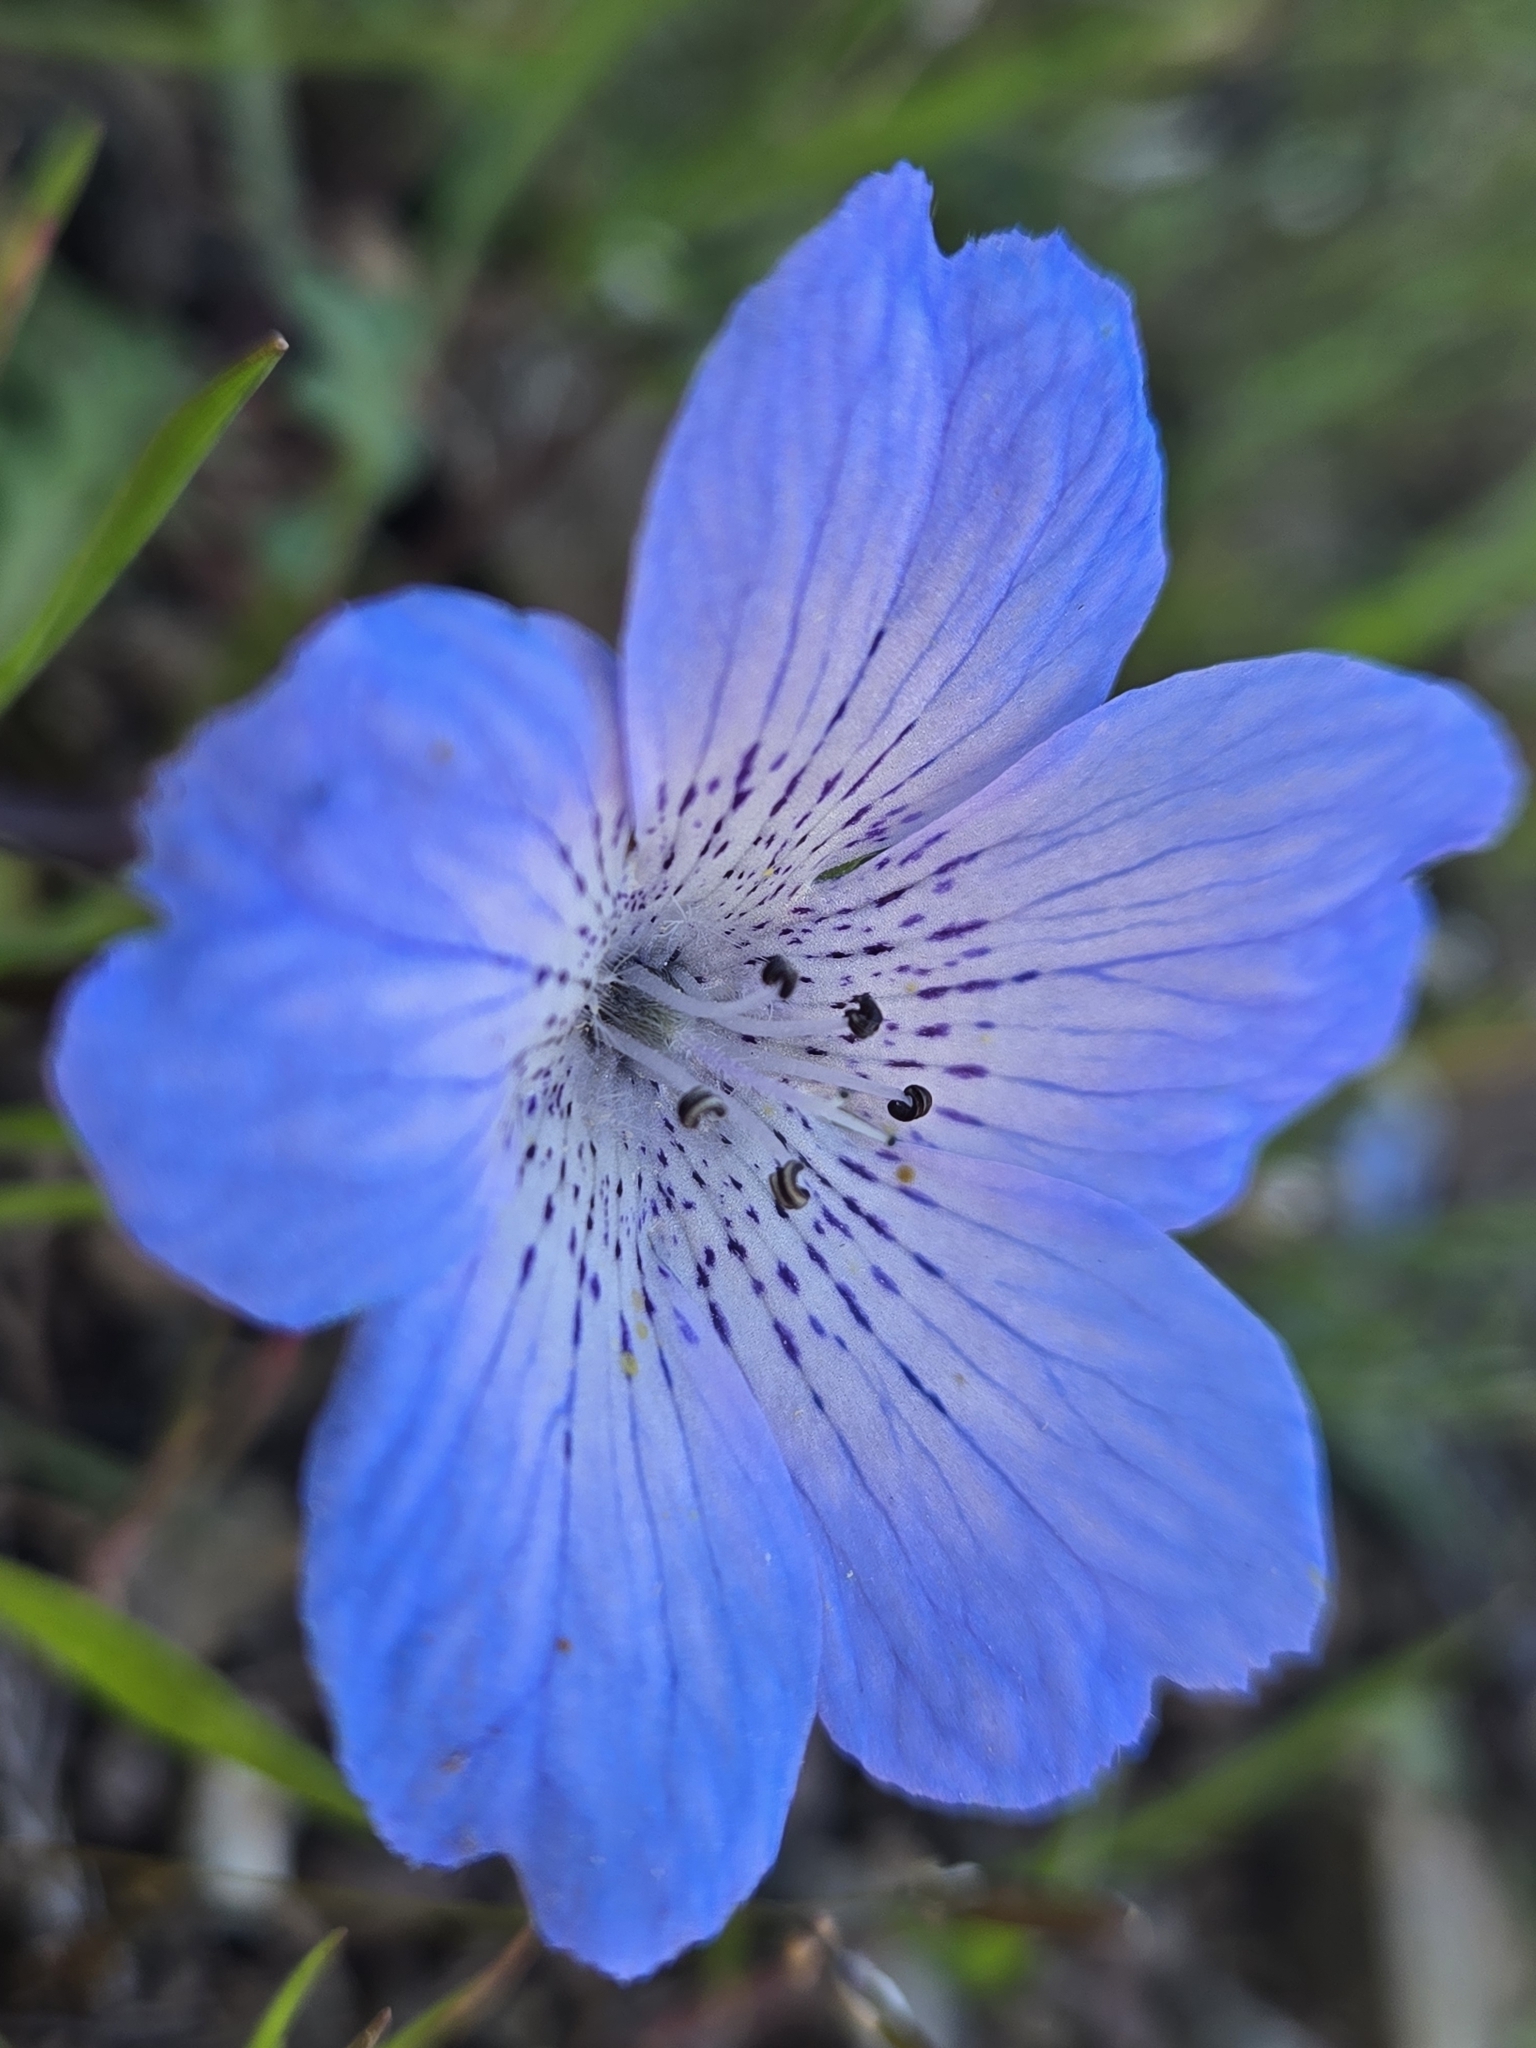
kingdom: Plantae
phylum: Tracheophyta
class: Magnoliopsida
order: Boraginales
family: Hydrophyllaceae
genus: Nemophila
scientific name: Nemophila menziesii
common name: Baby's-blue-eyes
